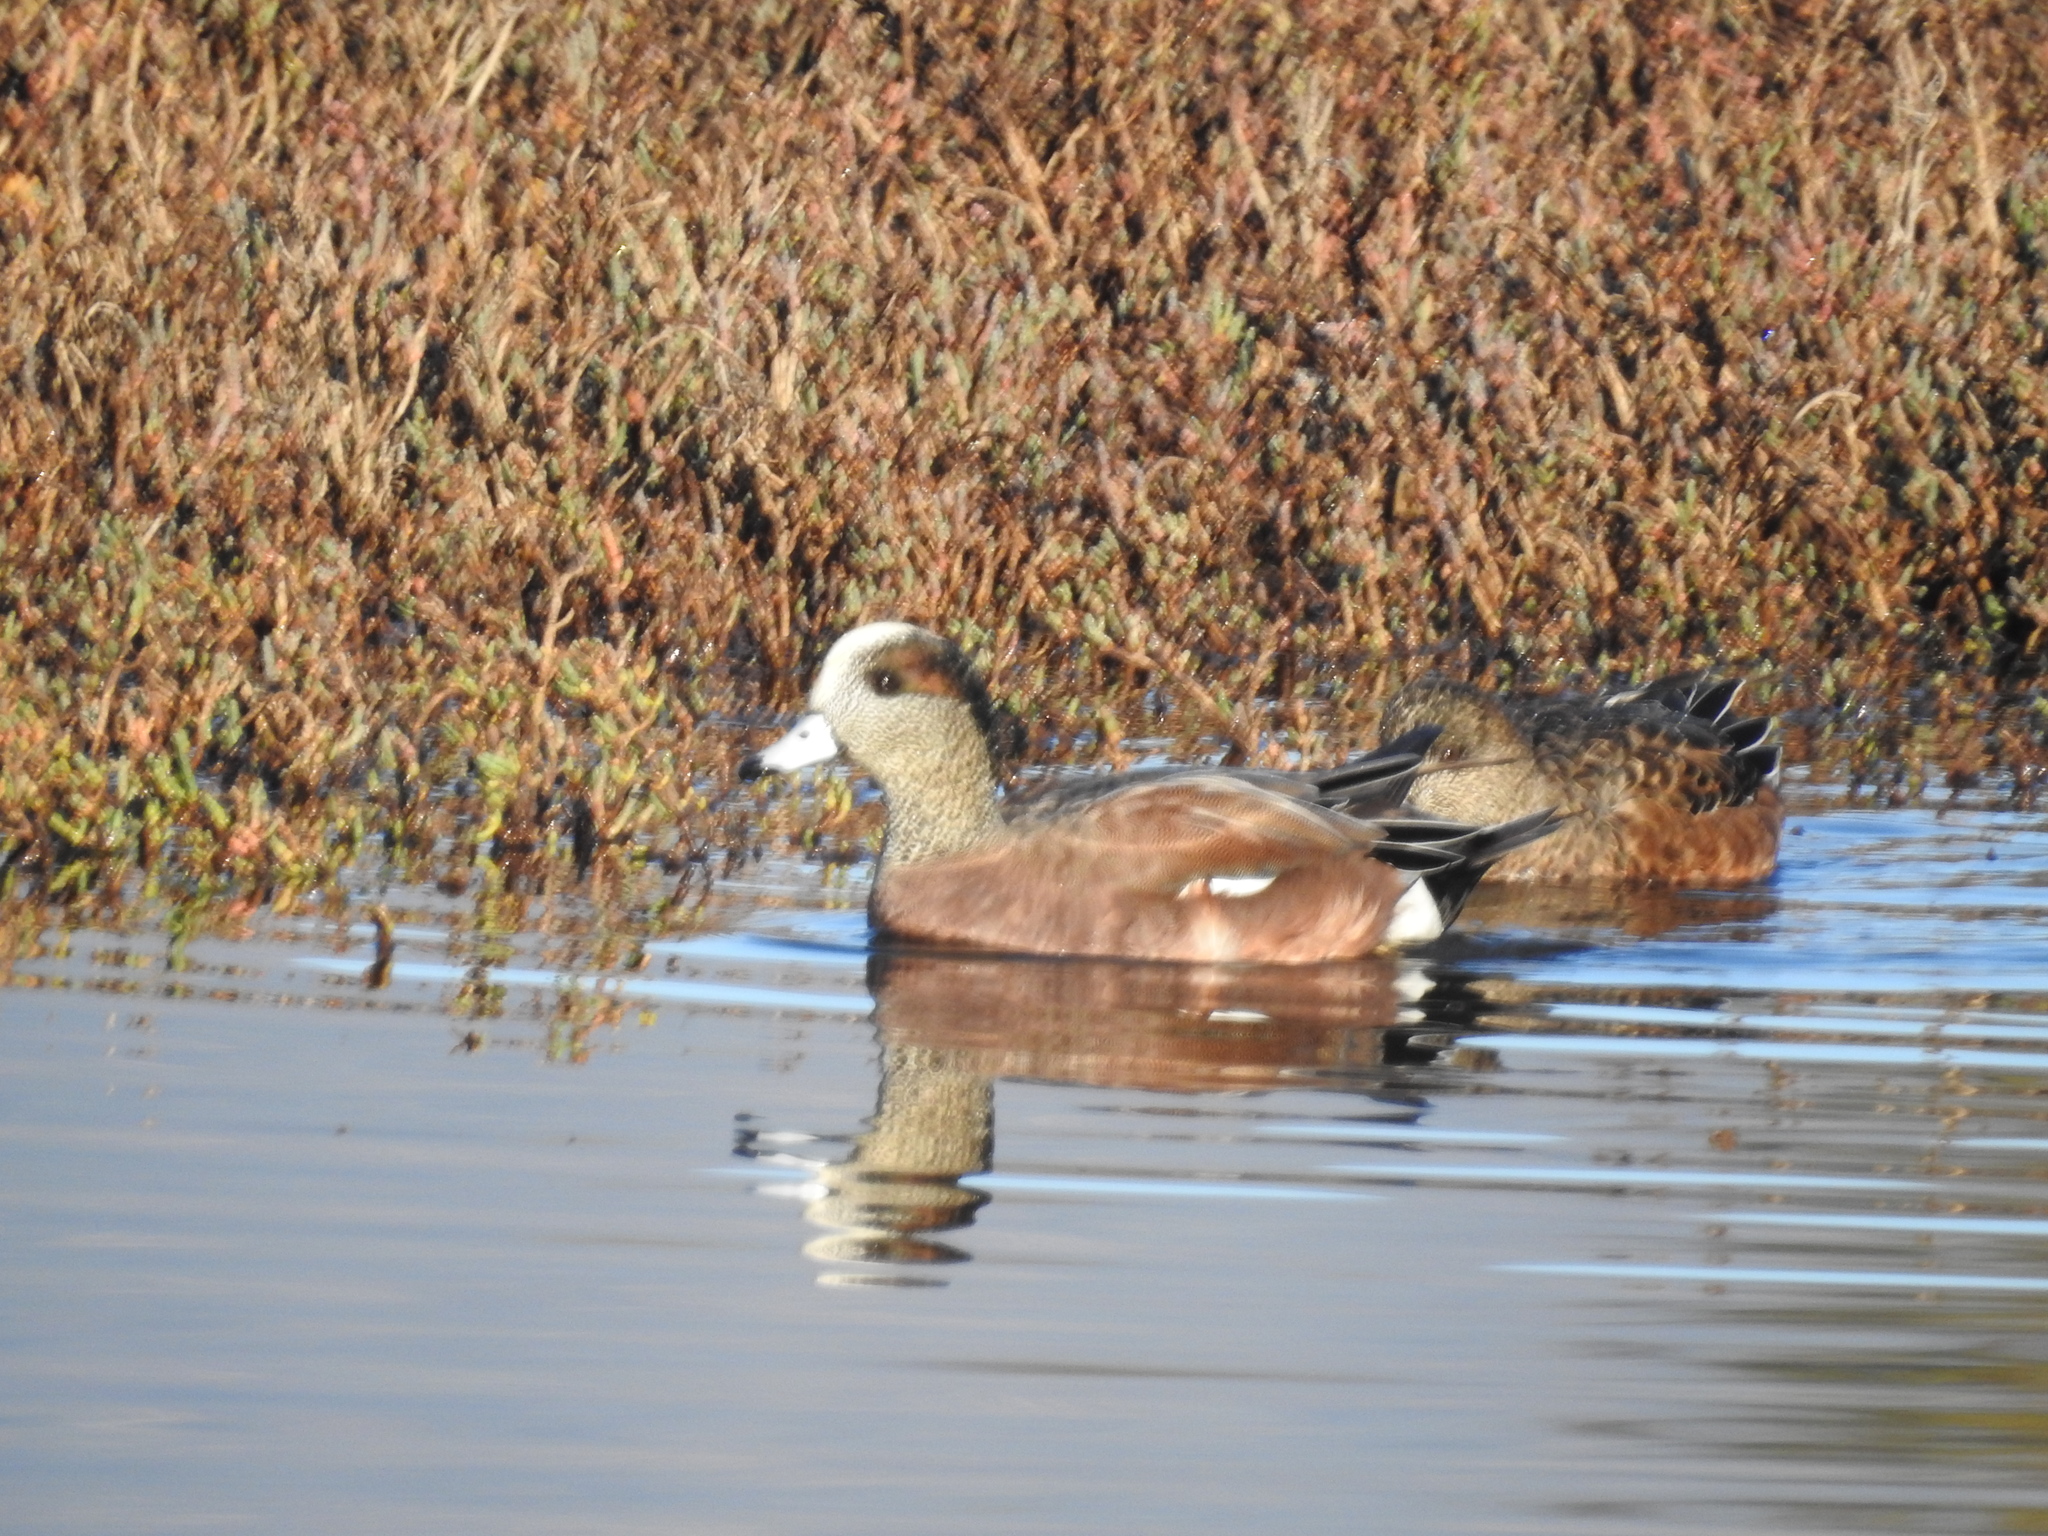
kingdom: Animalia
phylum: Chordata
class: Aves
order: Anseriformes
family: Anatidae
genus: Mareca
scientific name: Mareca americana
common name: American wigeon
